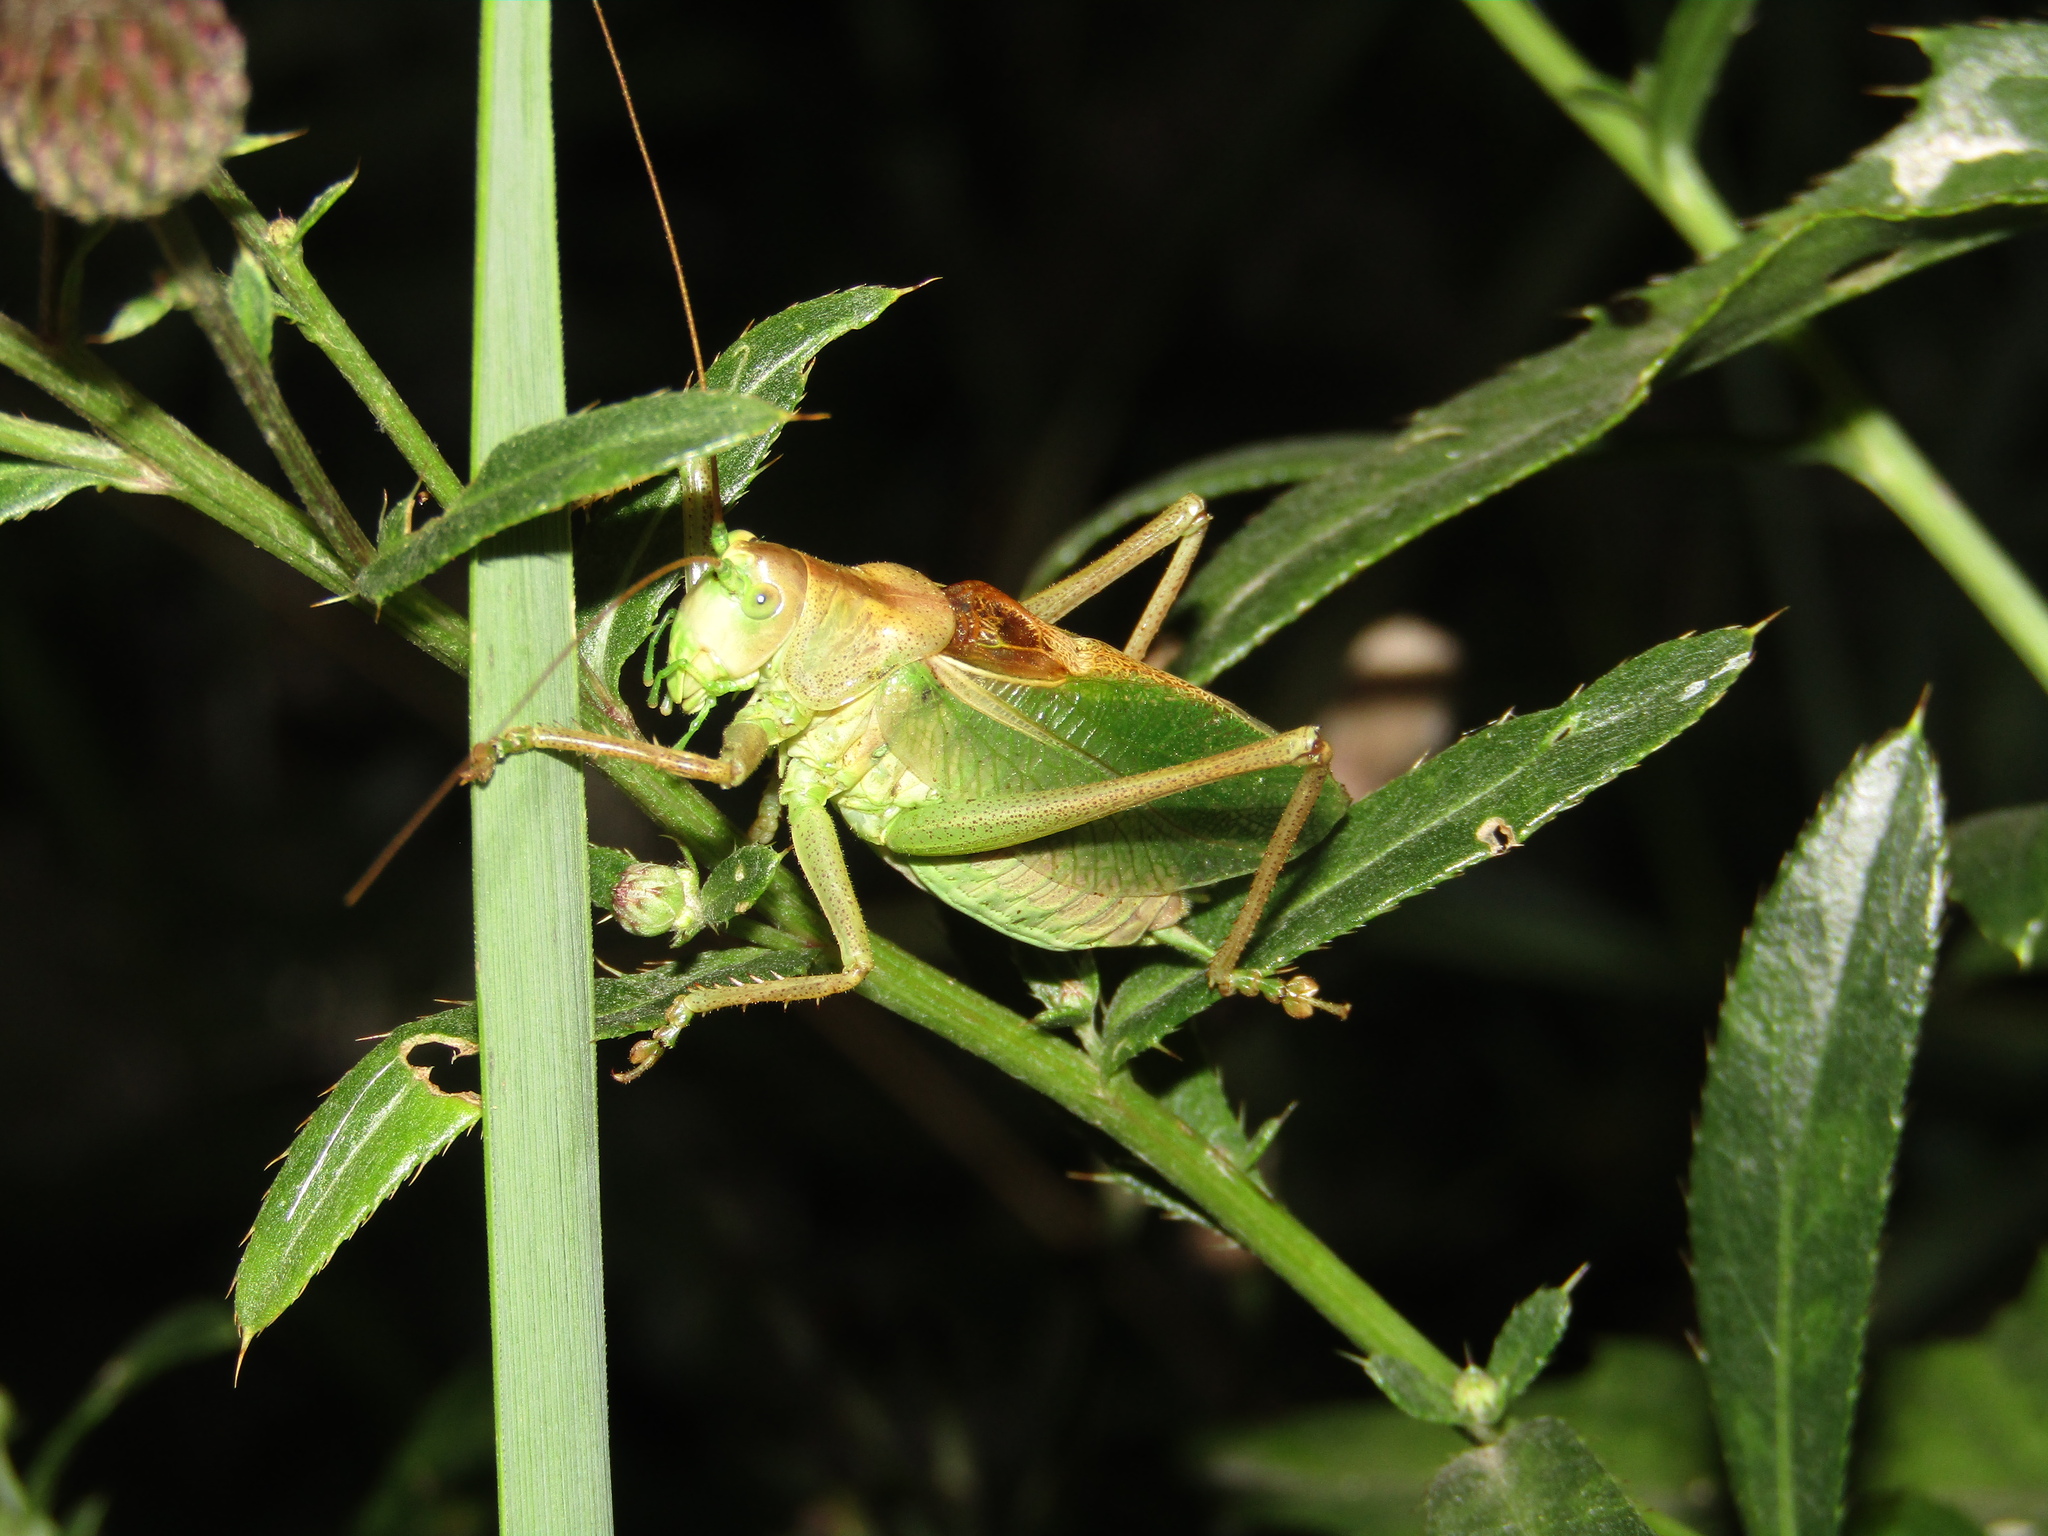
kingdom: Animalia
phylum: Arthropoda
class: Insecta
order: Orthoptera
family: Tettigoniidae
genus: Tettigonia
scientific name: Tettigonia cantans
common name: Upland green bush-cricket
